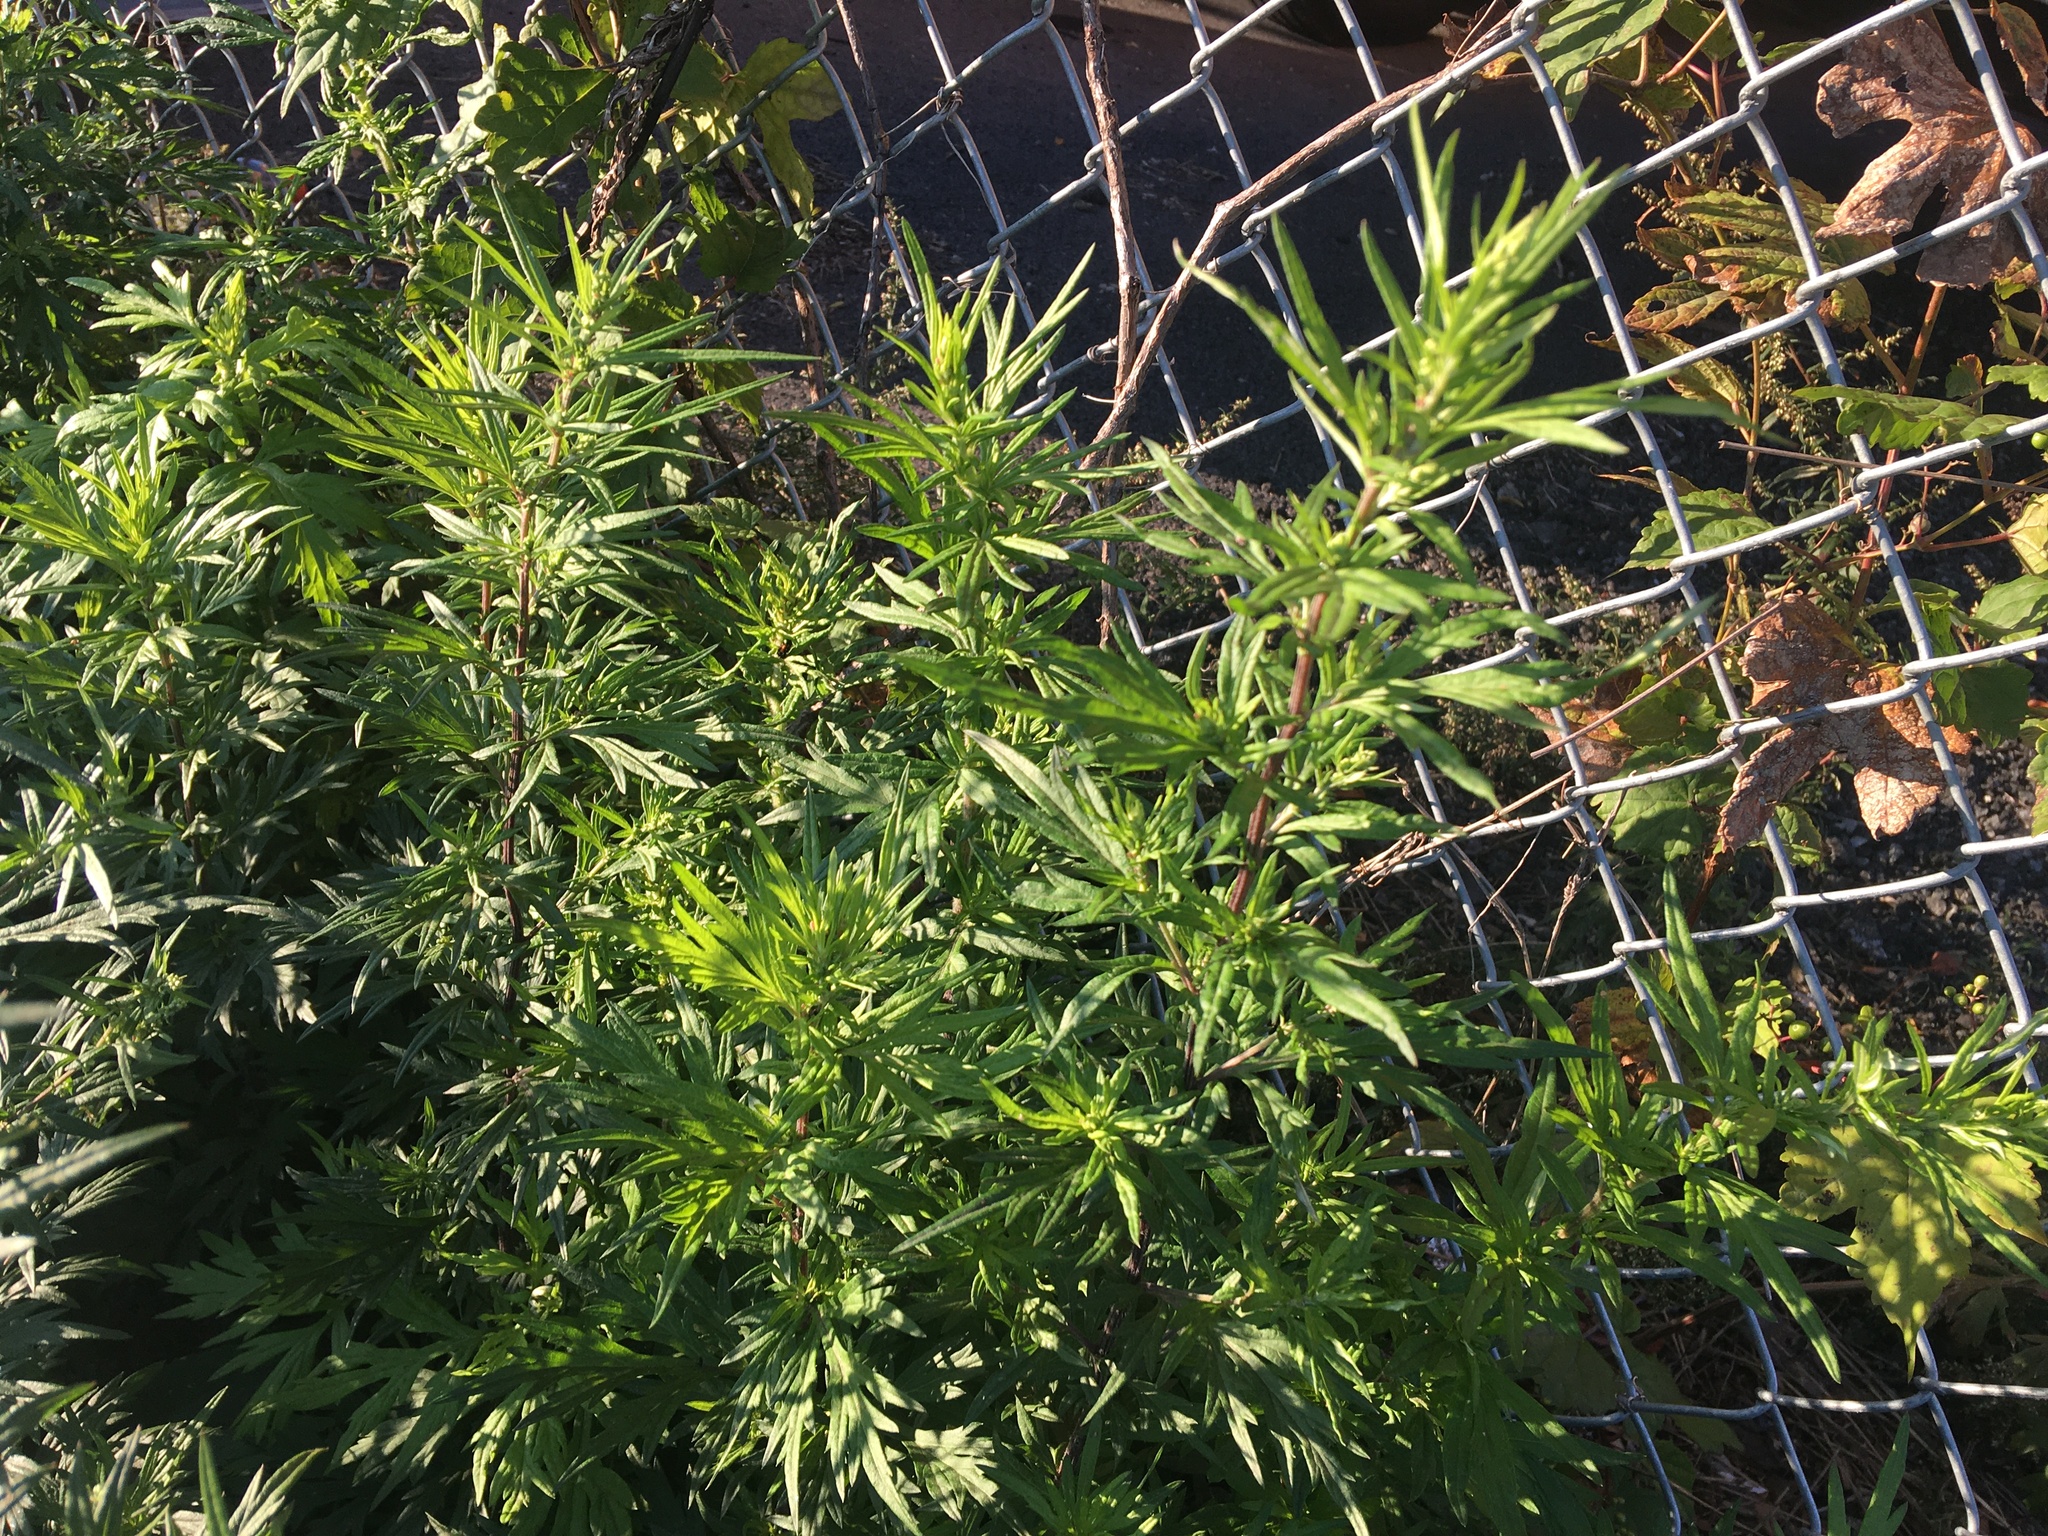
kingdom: Plantae
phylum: Tracheophyta
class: Magnoliopsida
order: Asterales
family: Asteraceae
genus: Artemisia
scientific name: Artemisia vulgaris
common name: Mugwort
